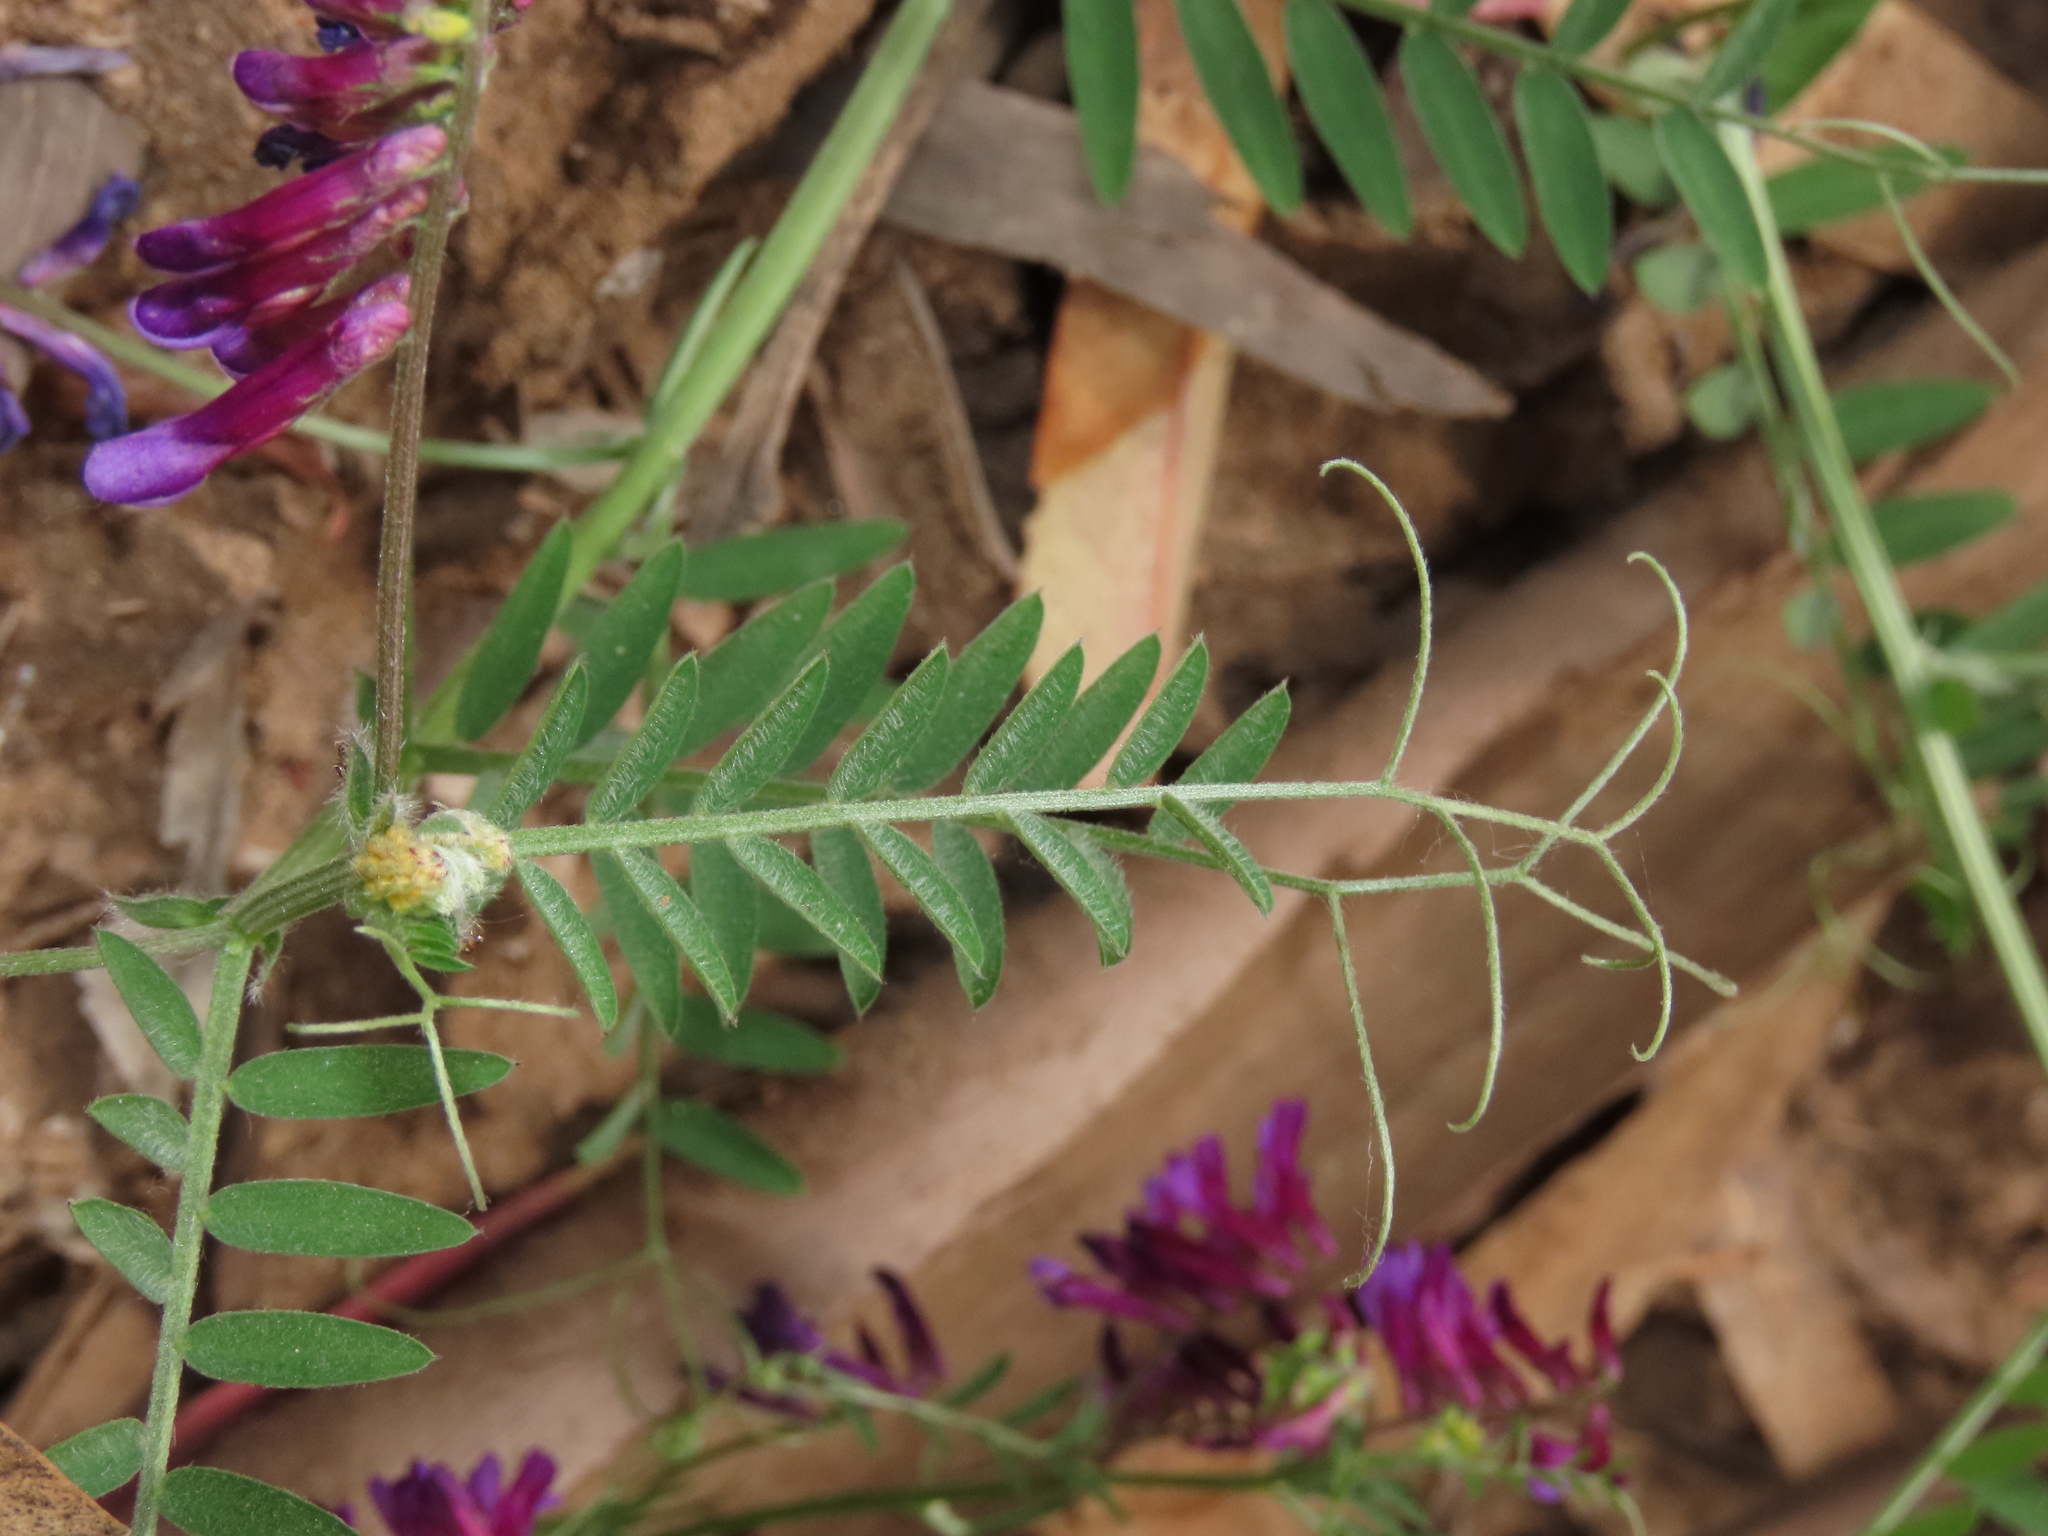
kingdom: Plantae
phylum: Tracheophyta
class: Magnoliopsida
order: Fabales
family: Fabaceae
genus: Vicia
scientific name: Vicia sativa
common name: Garden vetch
